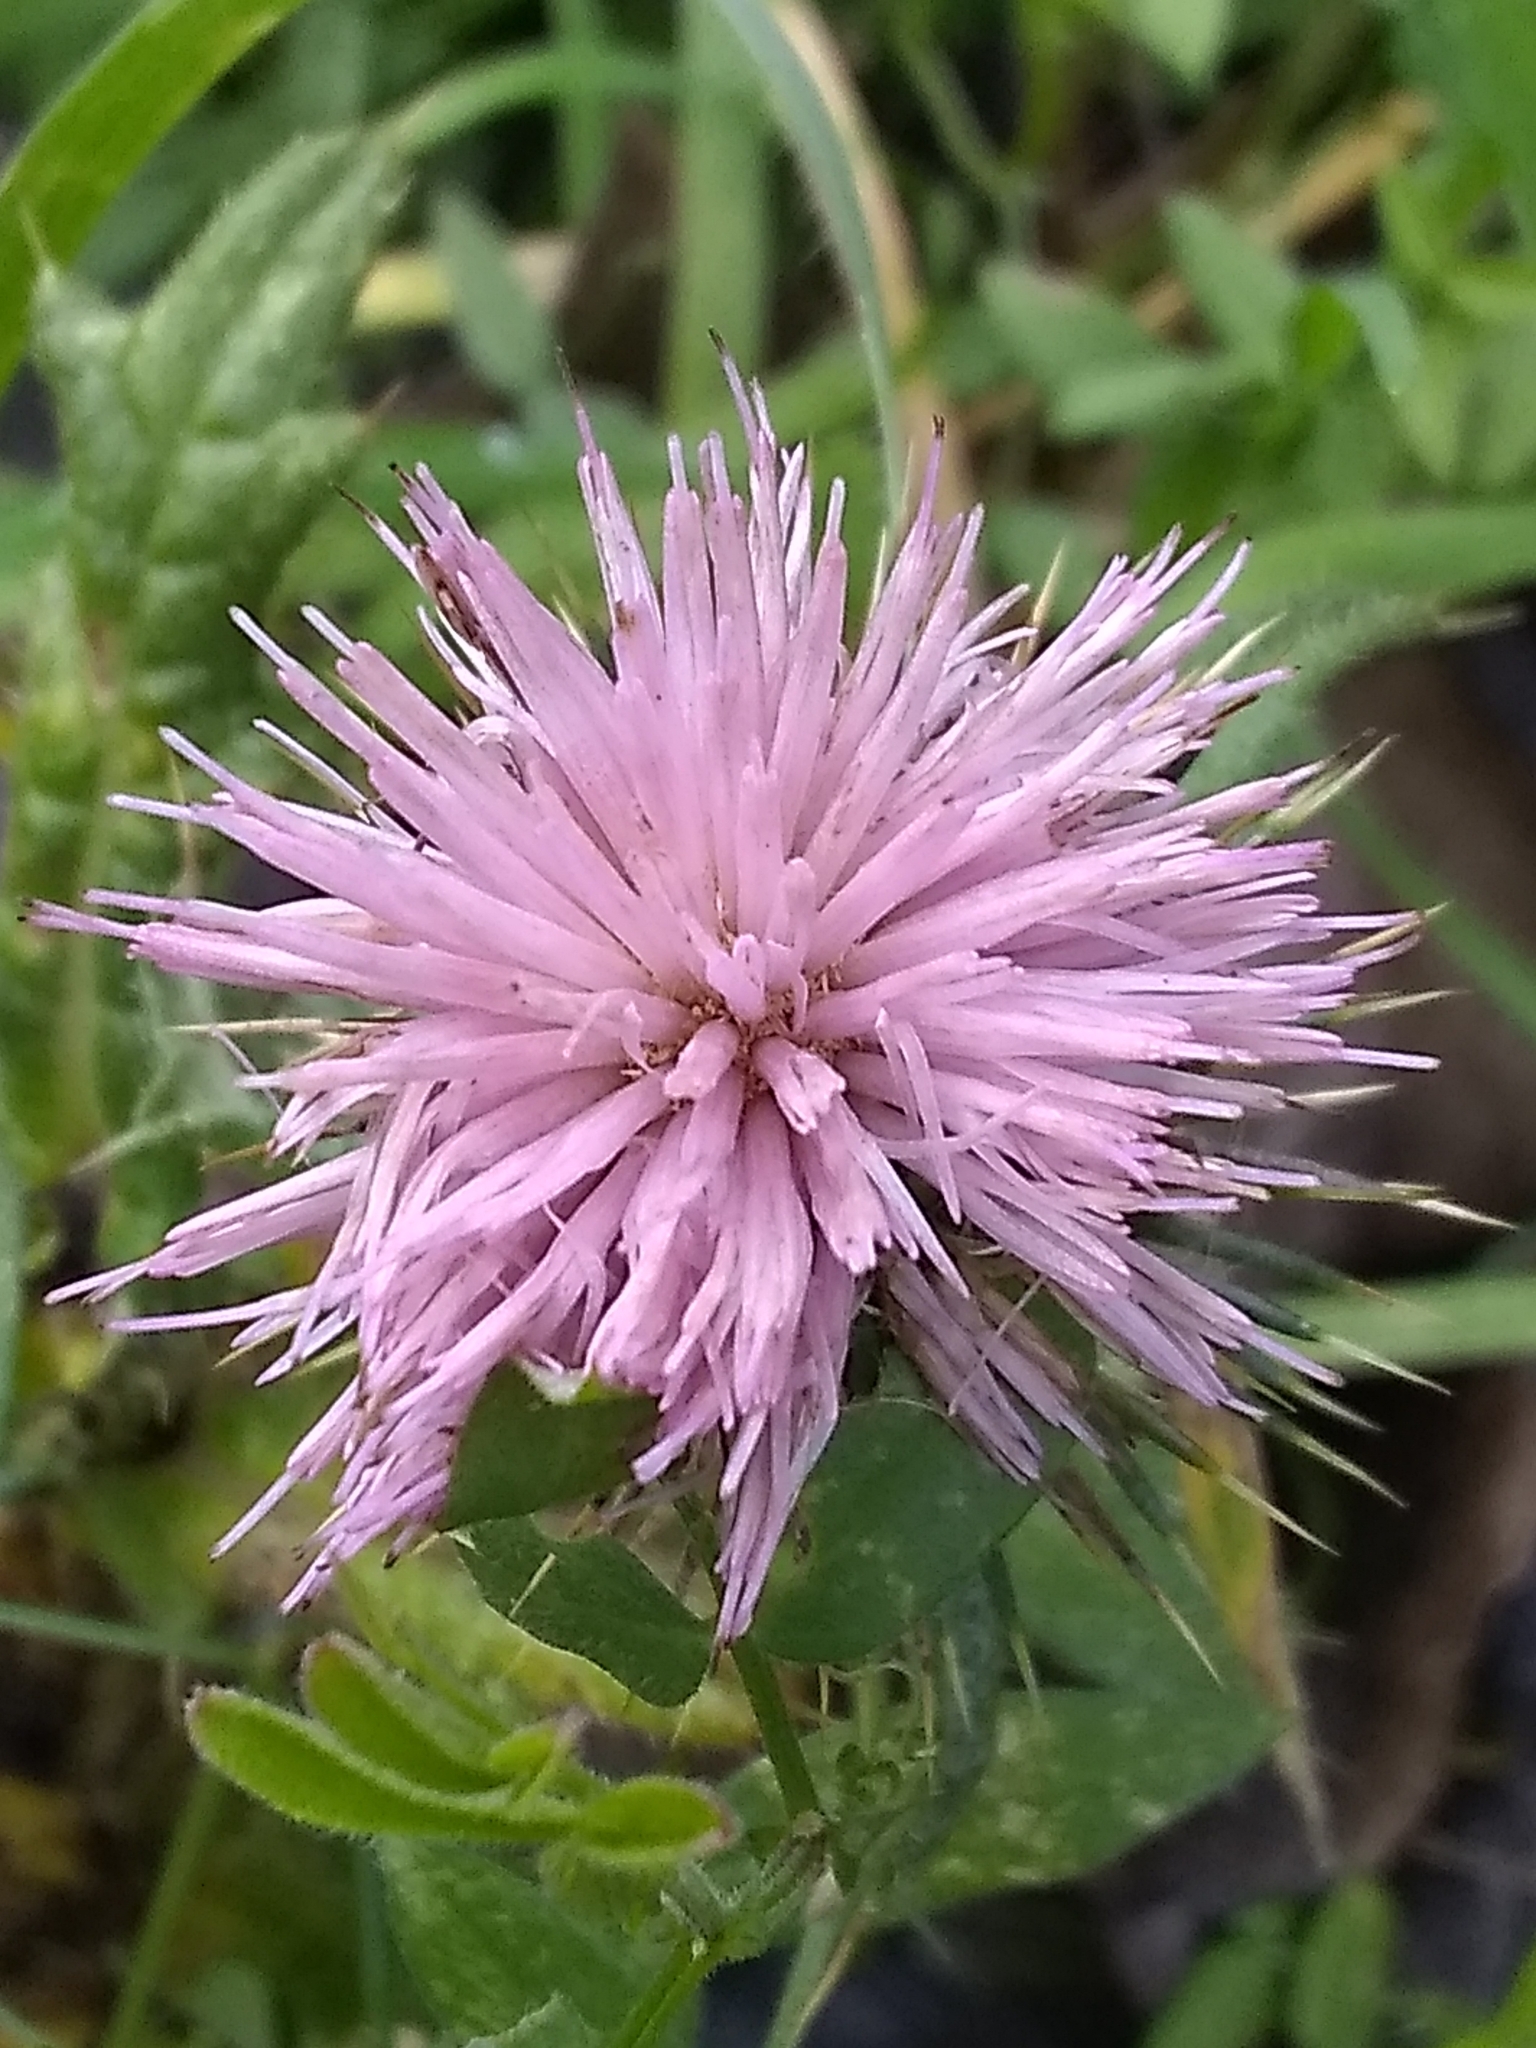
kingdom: Plantae
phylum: Tracheophyta
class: Magnoliopsida
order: Asterales
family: Asteraceae
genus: Cirsium
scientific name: Cirsium vulgare
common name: Bull thistle
